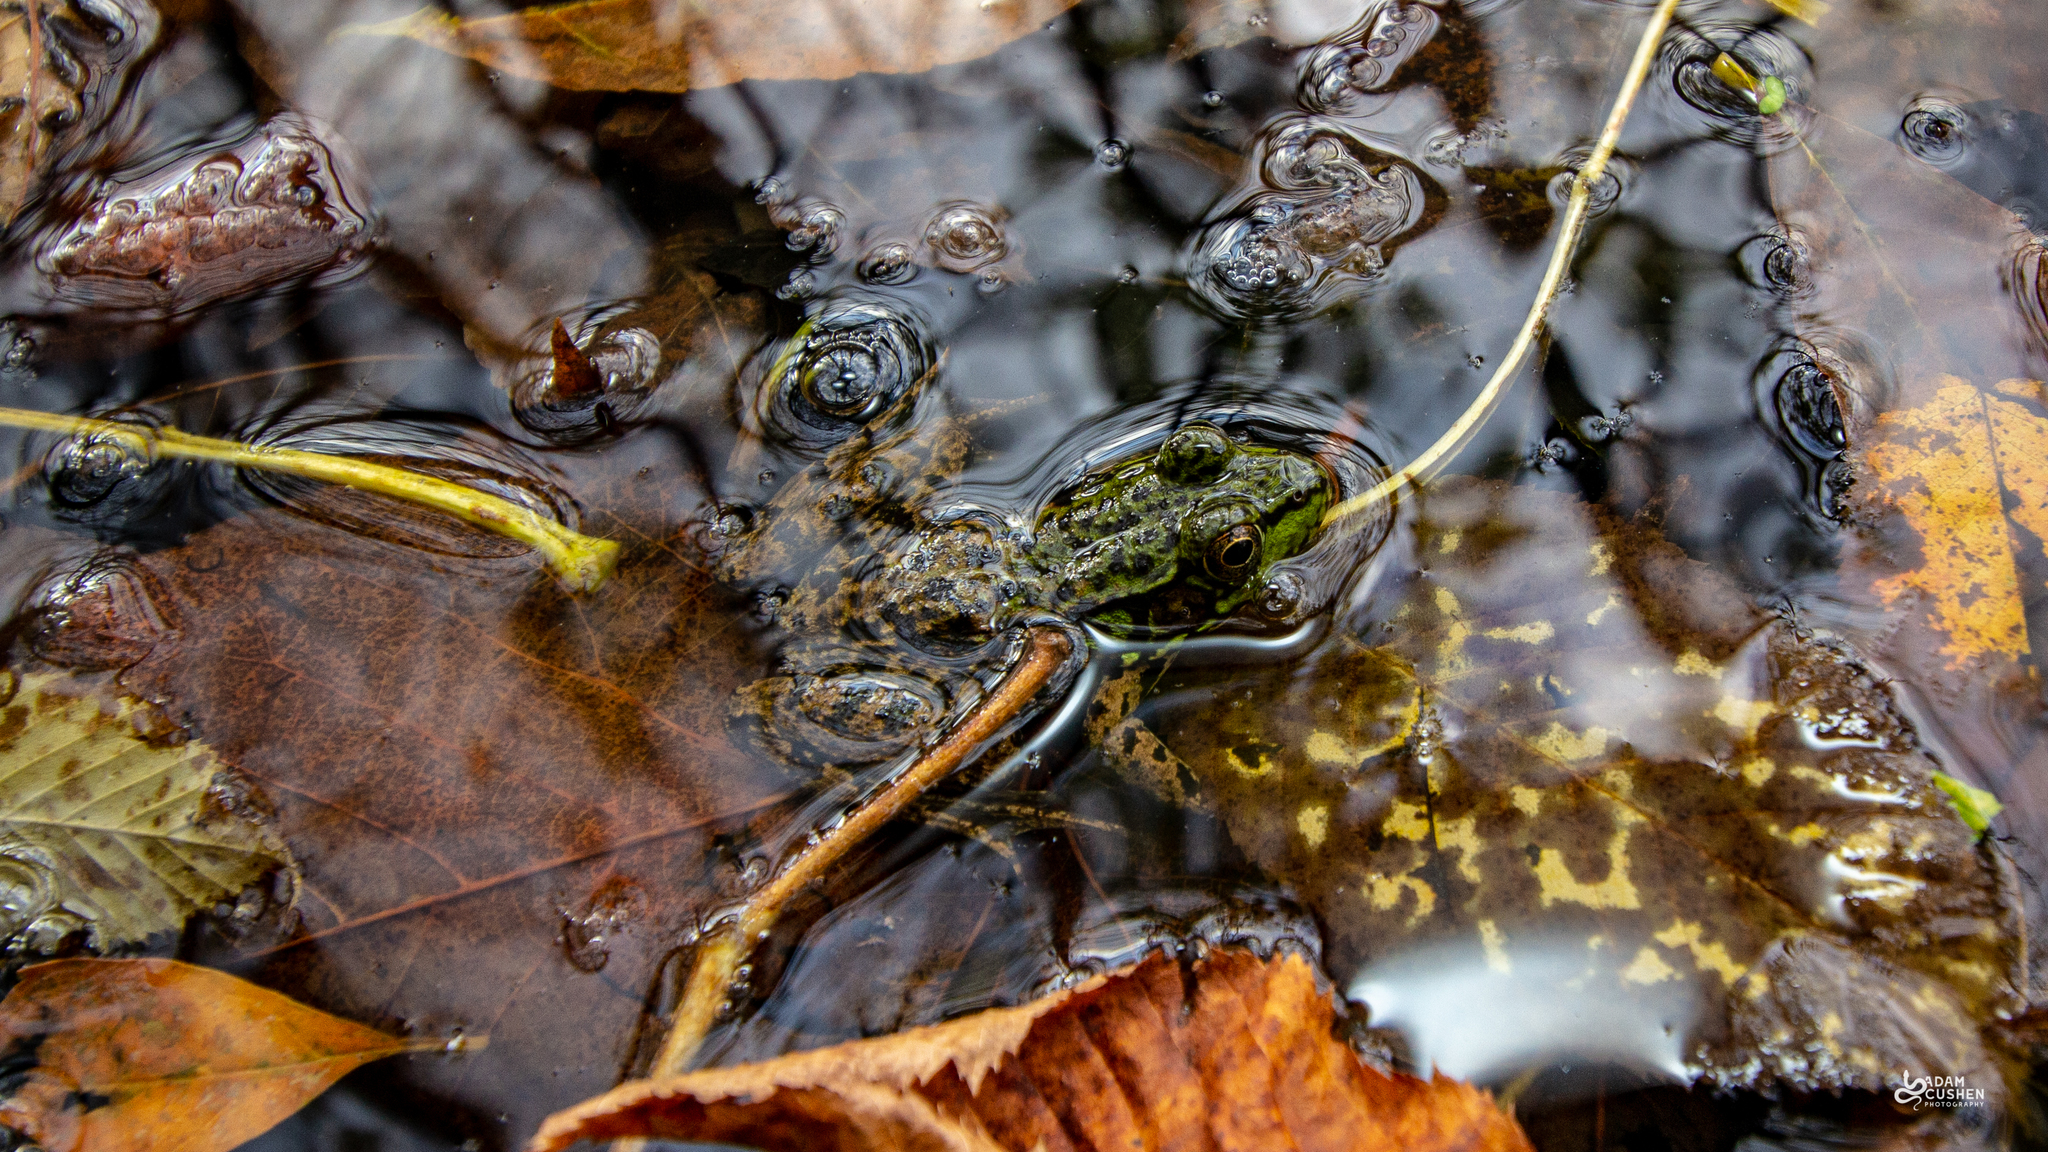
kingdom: Animalia
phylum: Chordata
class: Amphibia
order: Anura
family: Ranidae
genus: Lithobates
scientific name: Lithobates clamitans
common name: Green frog
